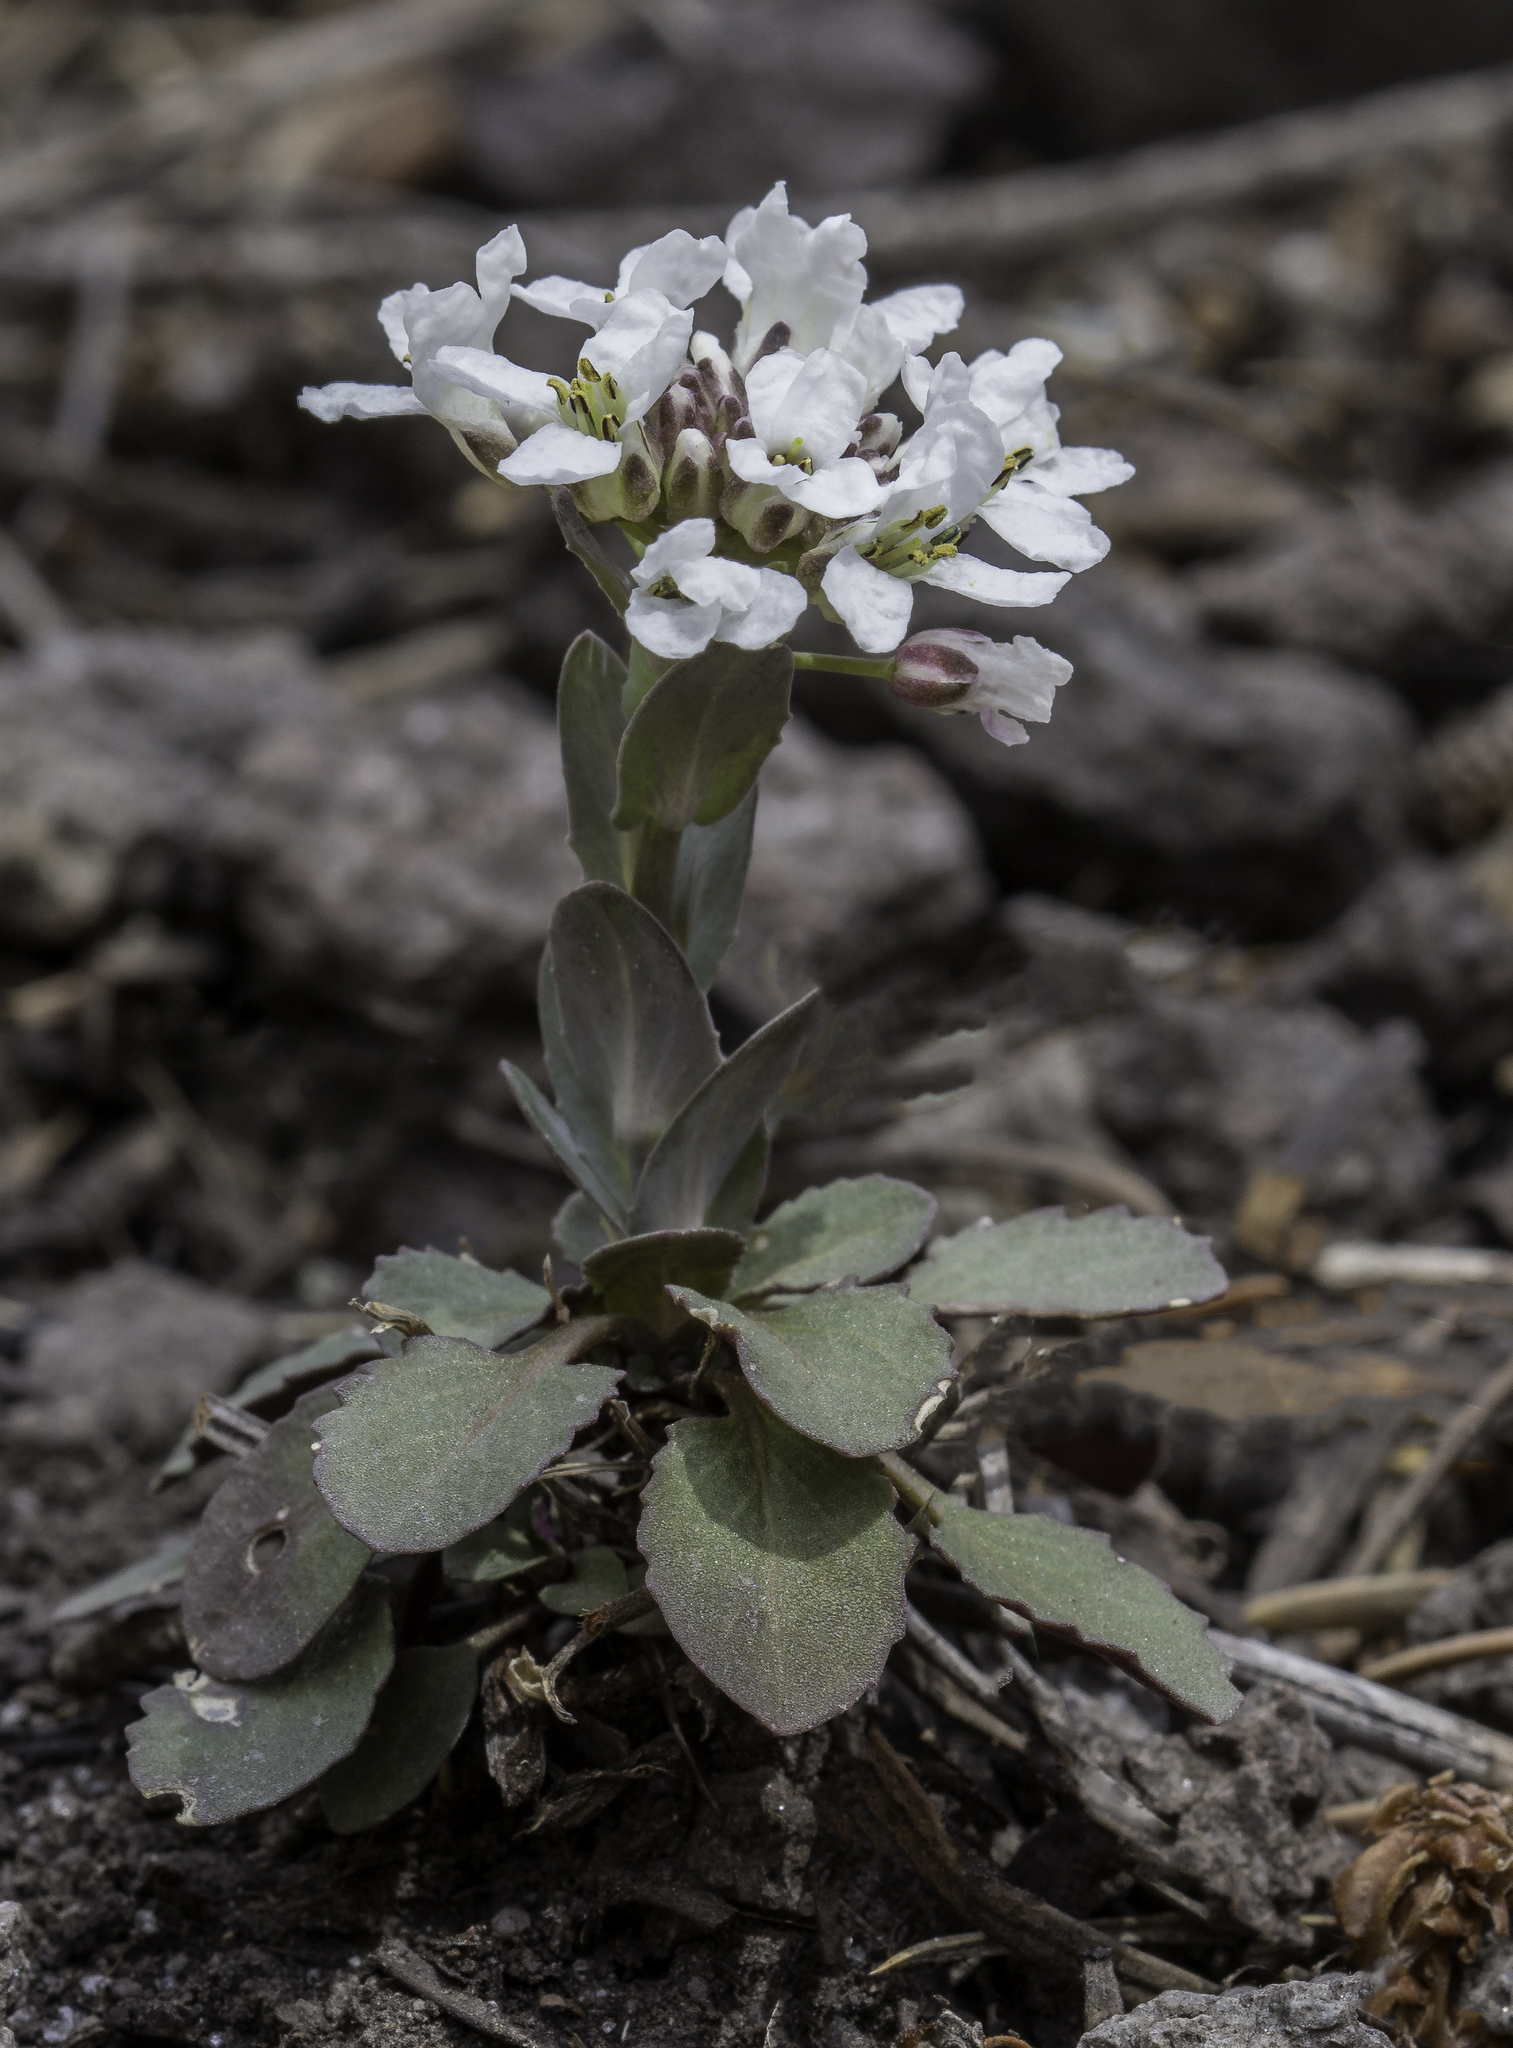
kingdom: Plantae
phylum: Tracheophyta
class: Magnoliopsida
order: Brassicales
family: Brassicaceae
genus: Noccaea
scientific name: Noccaea fendleri
